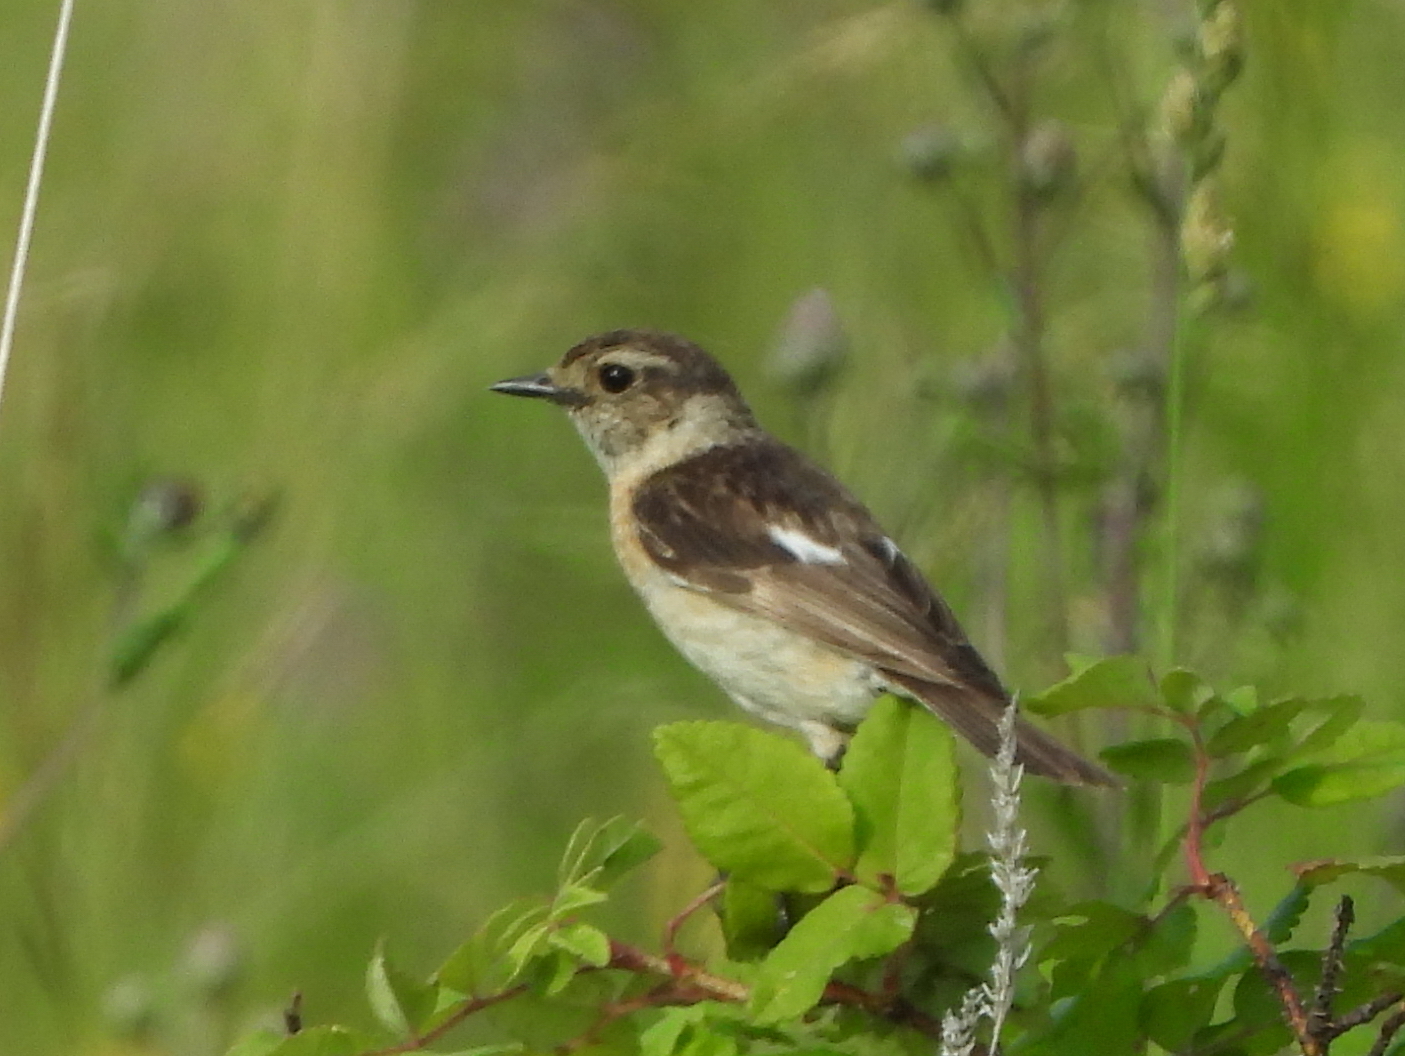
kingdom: Animalia
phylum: Chordata
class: Aves
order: Passeriformes
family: Muscicapidae
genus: Saxicola
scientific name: Saxicola maurus
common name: Siberian stonechat
